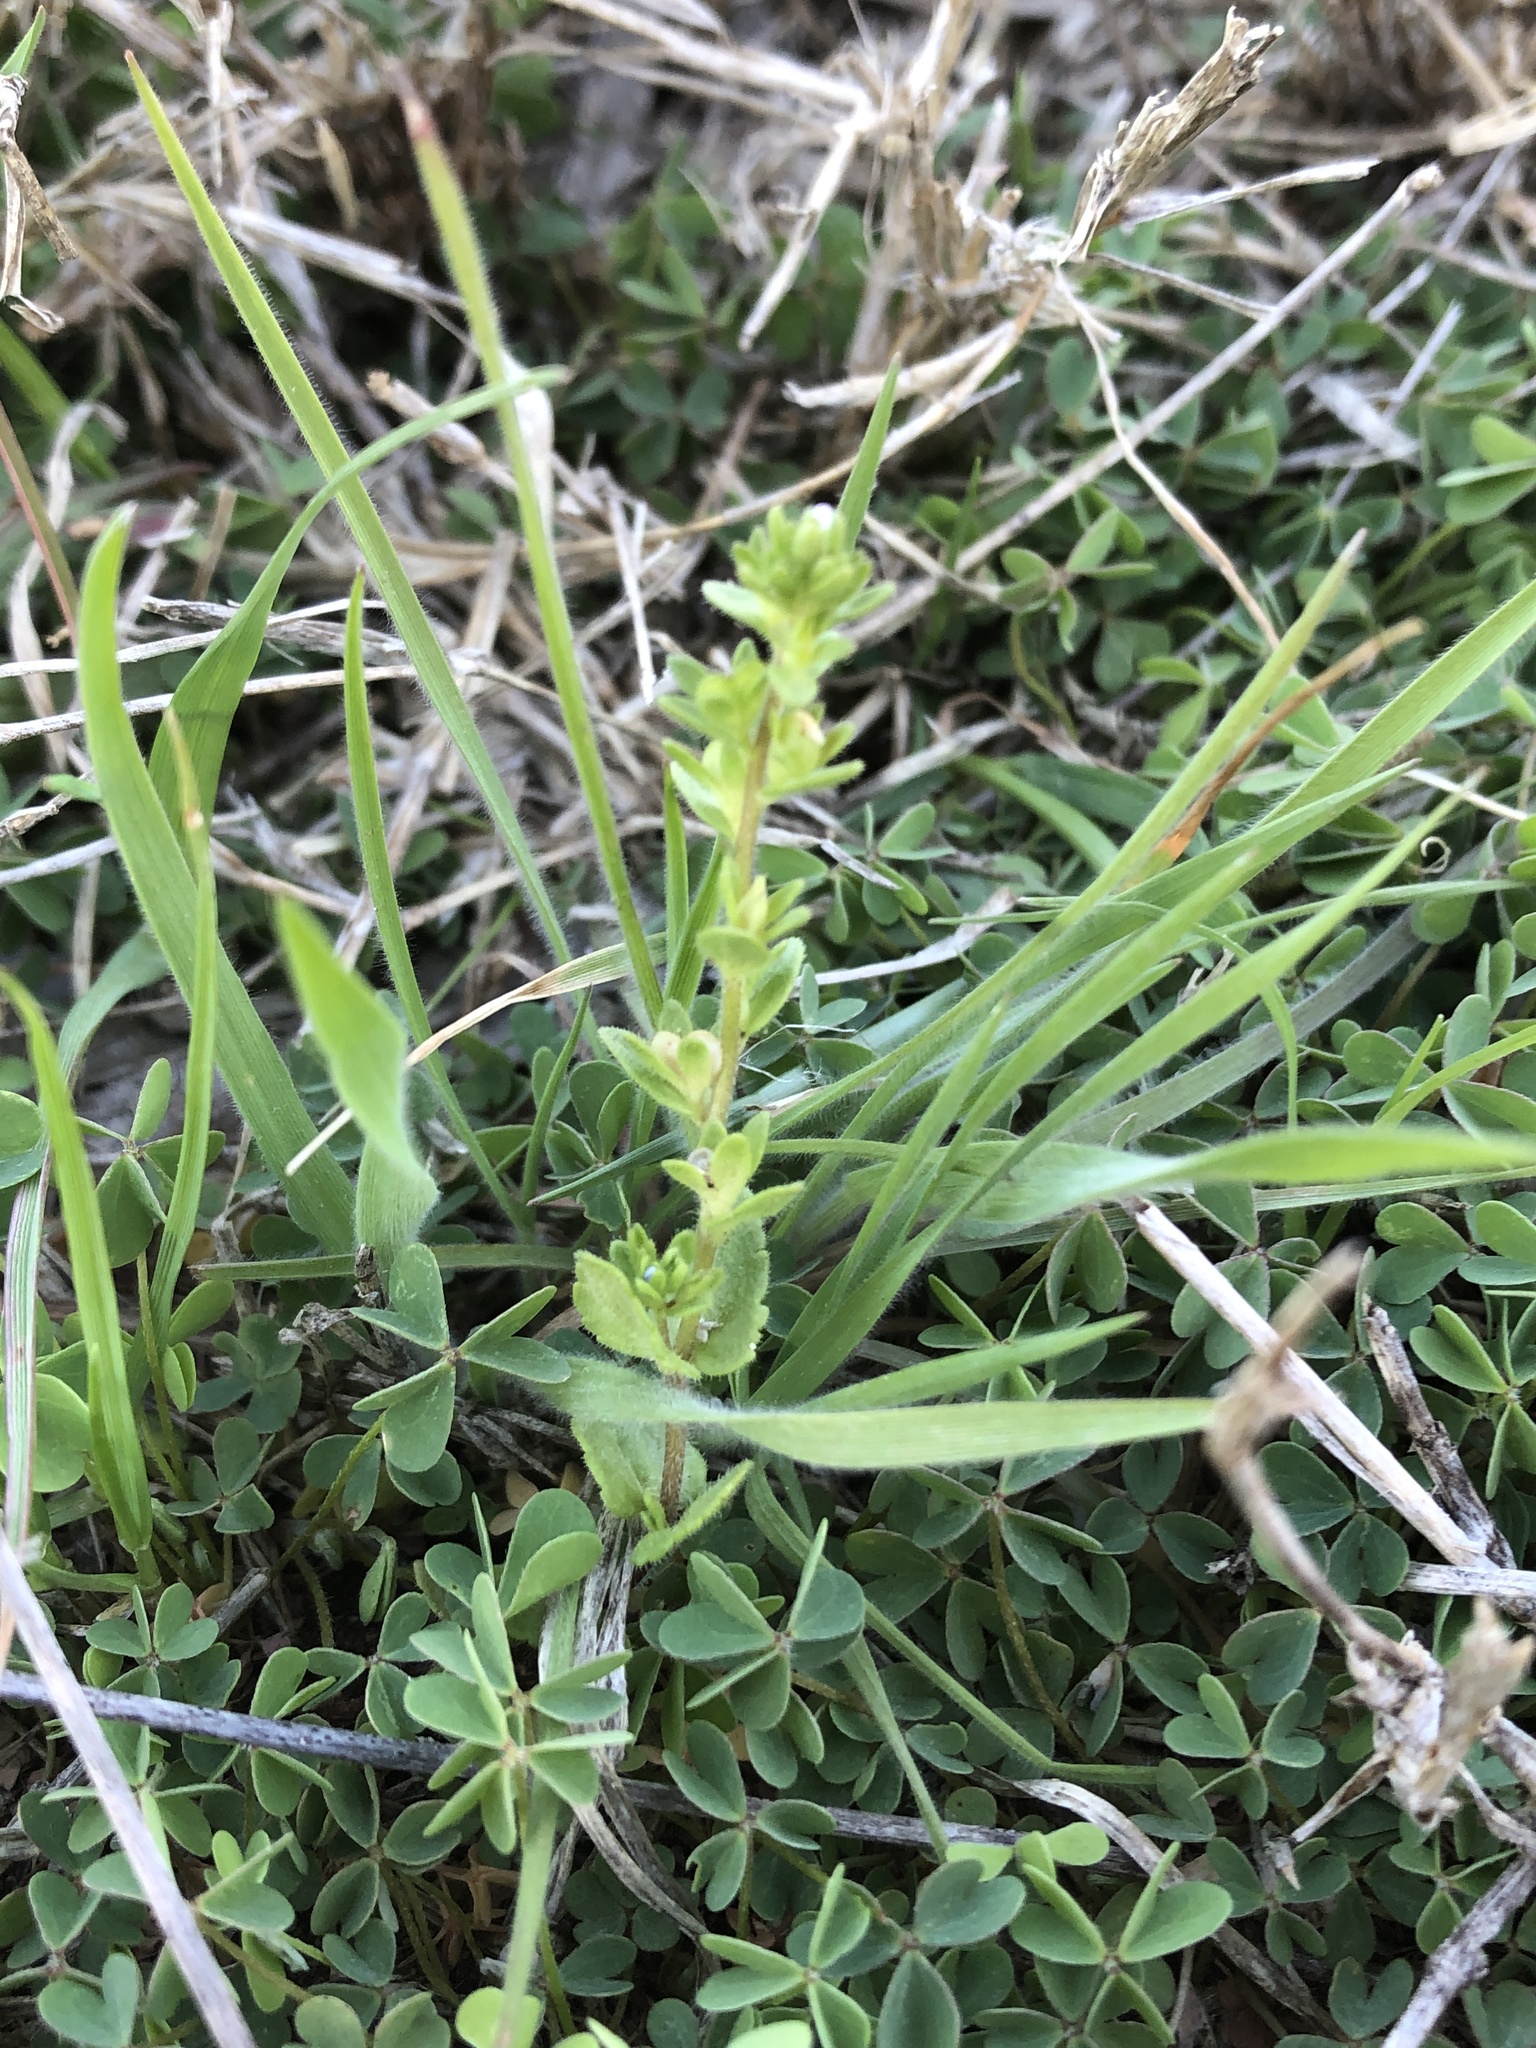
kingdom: Plantae
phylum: Tracheophyta
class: Magnoliopsida
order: Lamiales
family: Plantaginaceae
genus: Veronica
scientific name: Veronica arvensis
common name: Corn speedwell
